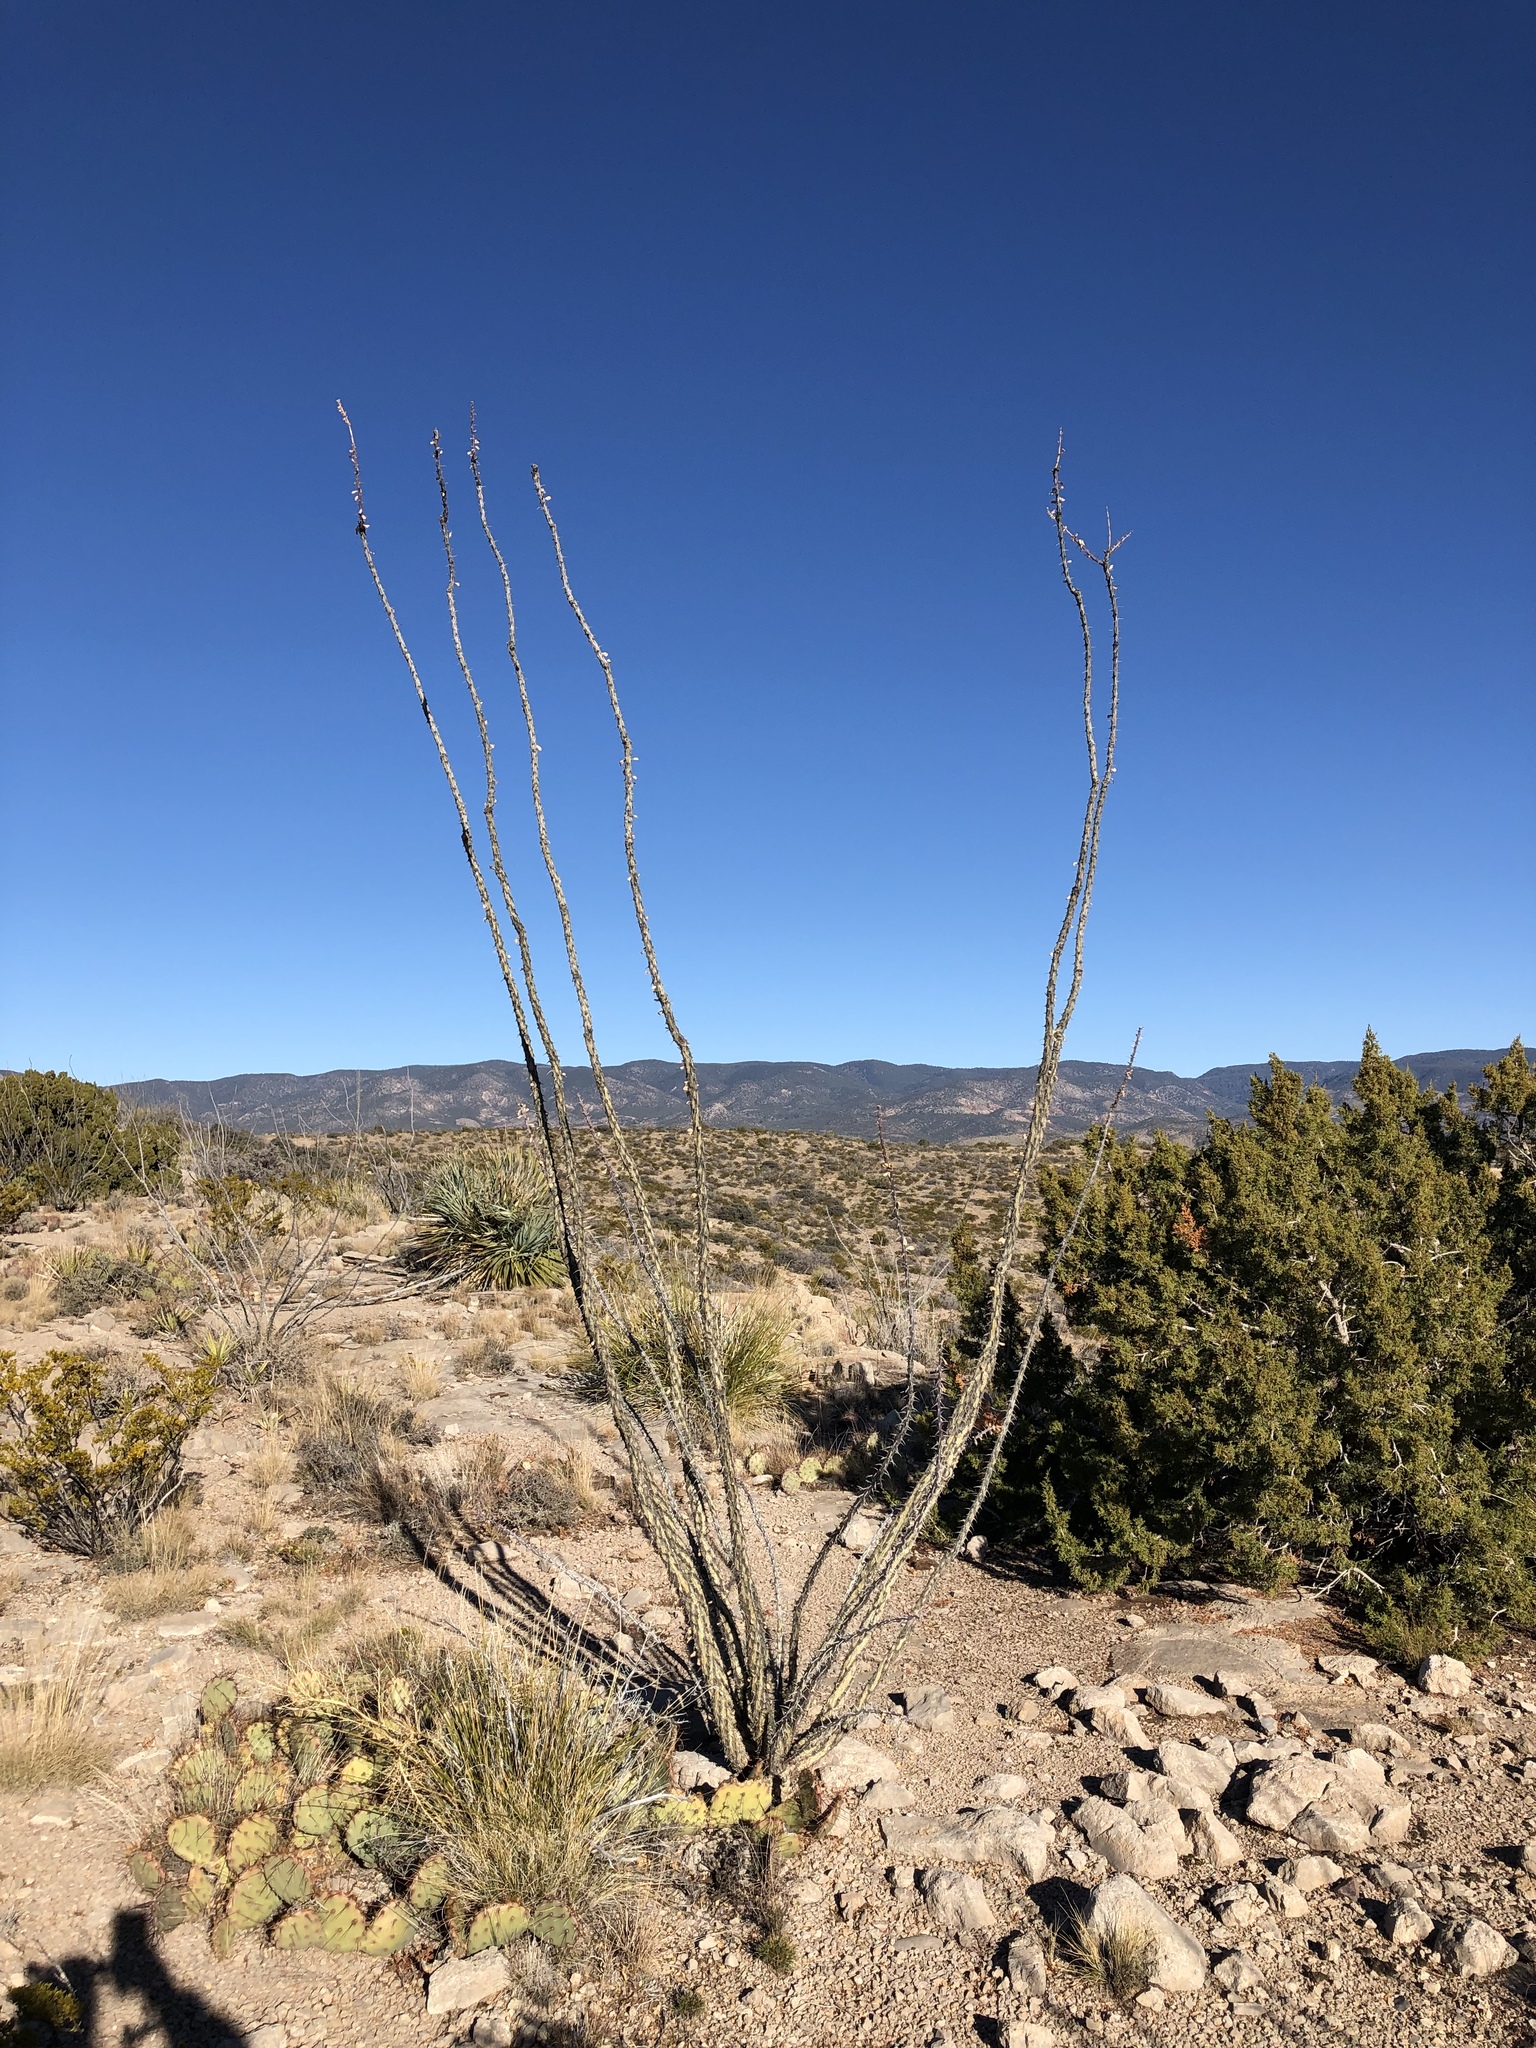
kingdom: Plantae
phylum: Tracheophyta
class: Magnoliopsida
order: Ericales
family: Fouquieriaceae
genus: Fouquieria
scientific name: Fouquieria splendens
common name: Vine-cactus
